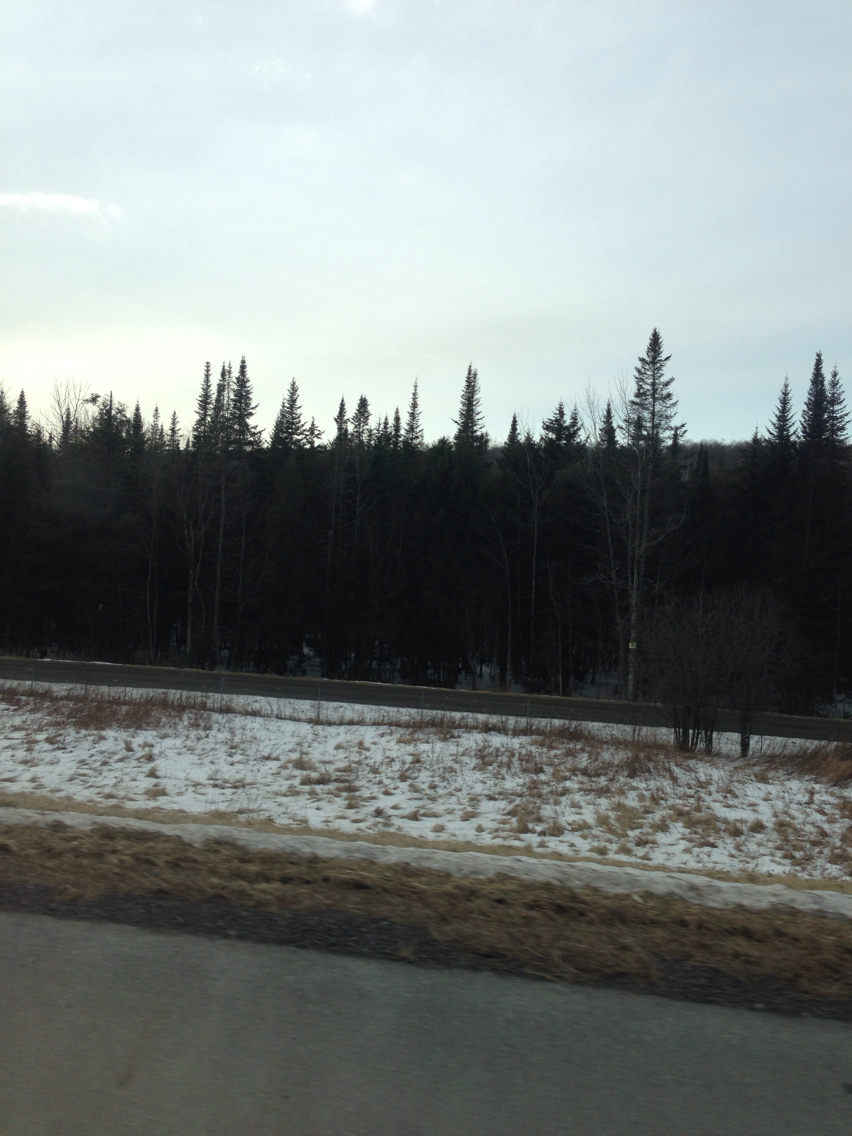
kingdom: Plantae
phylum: Tracheophyta
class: Pinopsida
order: Pinales
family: Pinaceae
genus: Abies
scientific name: Abies balsamea
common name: Balsam fir
